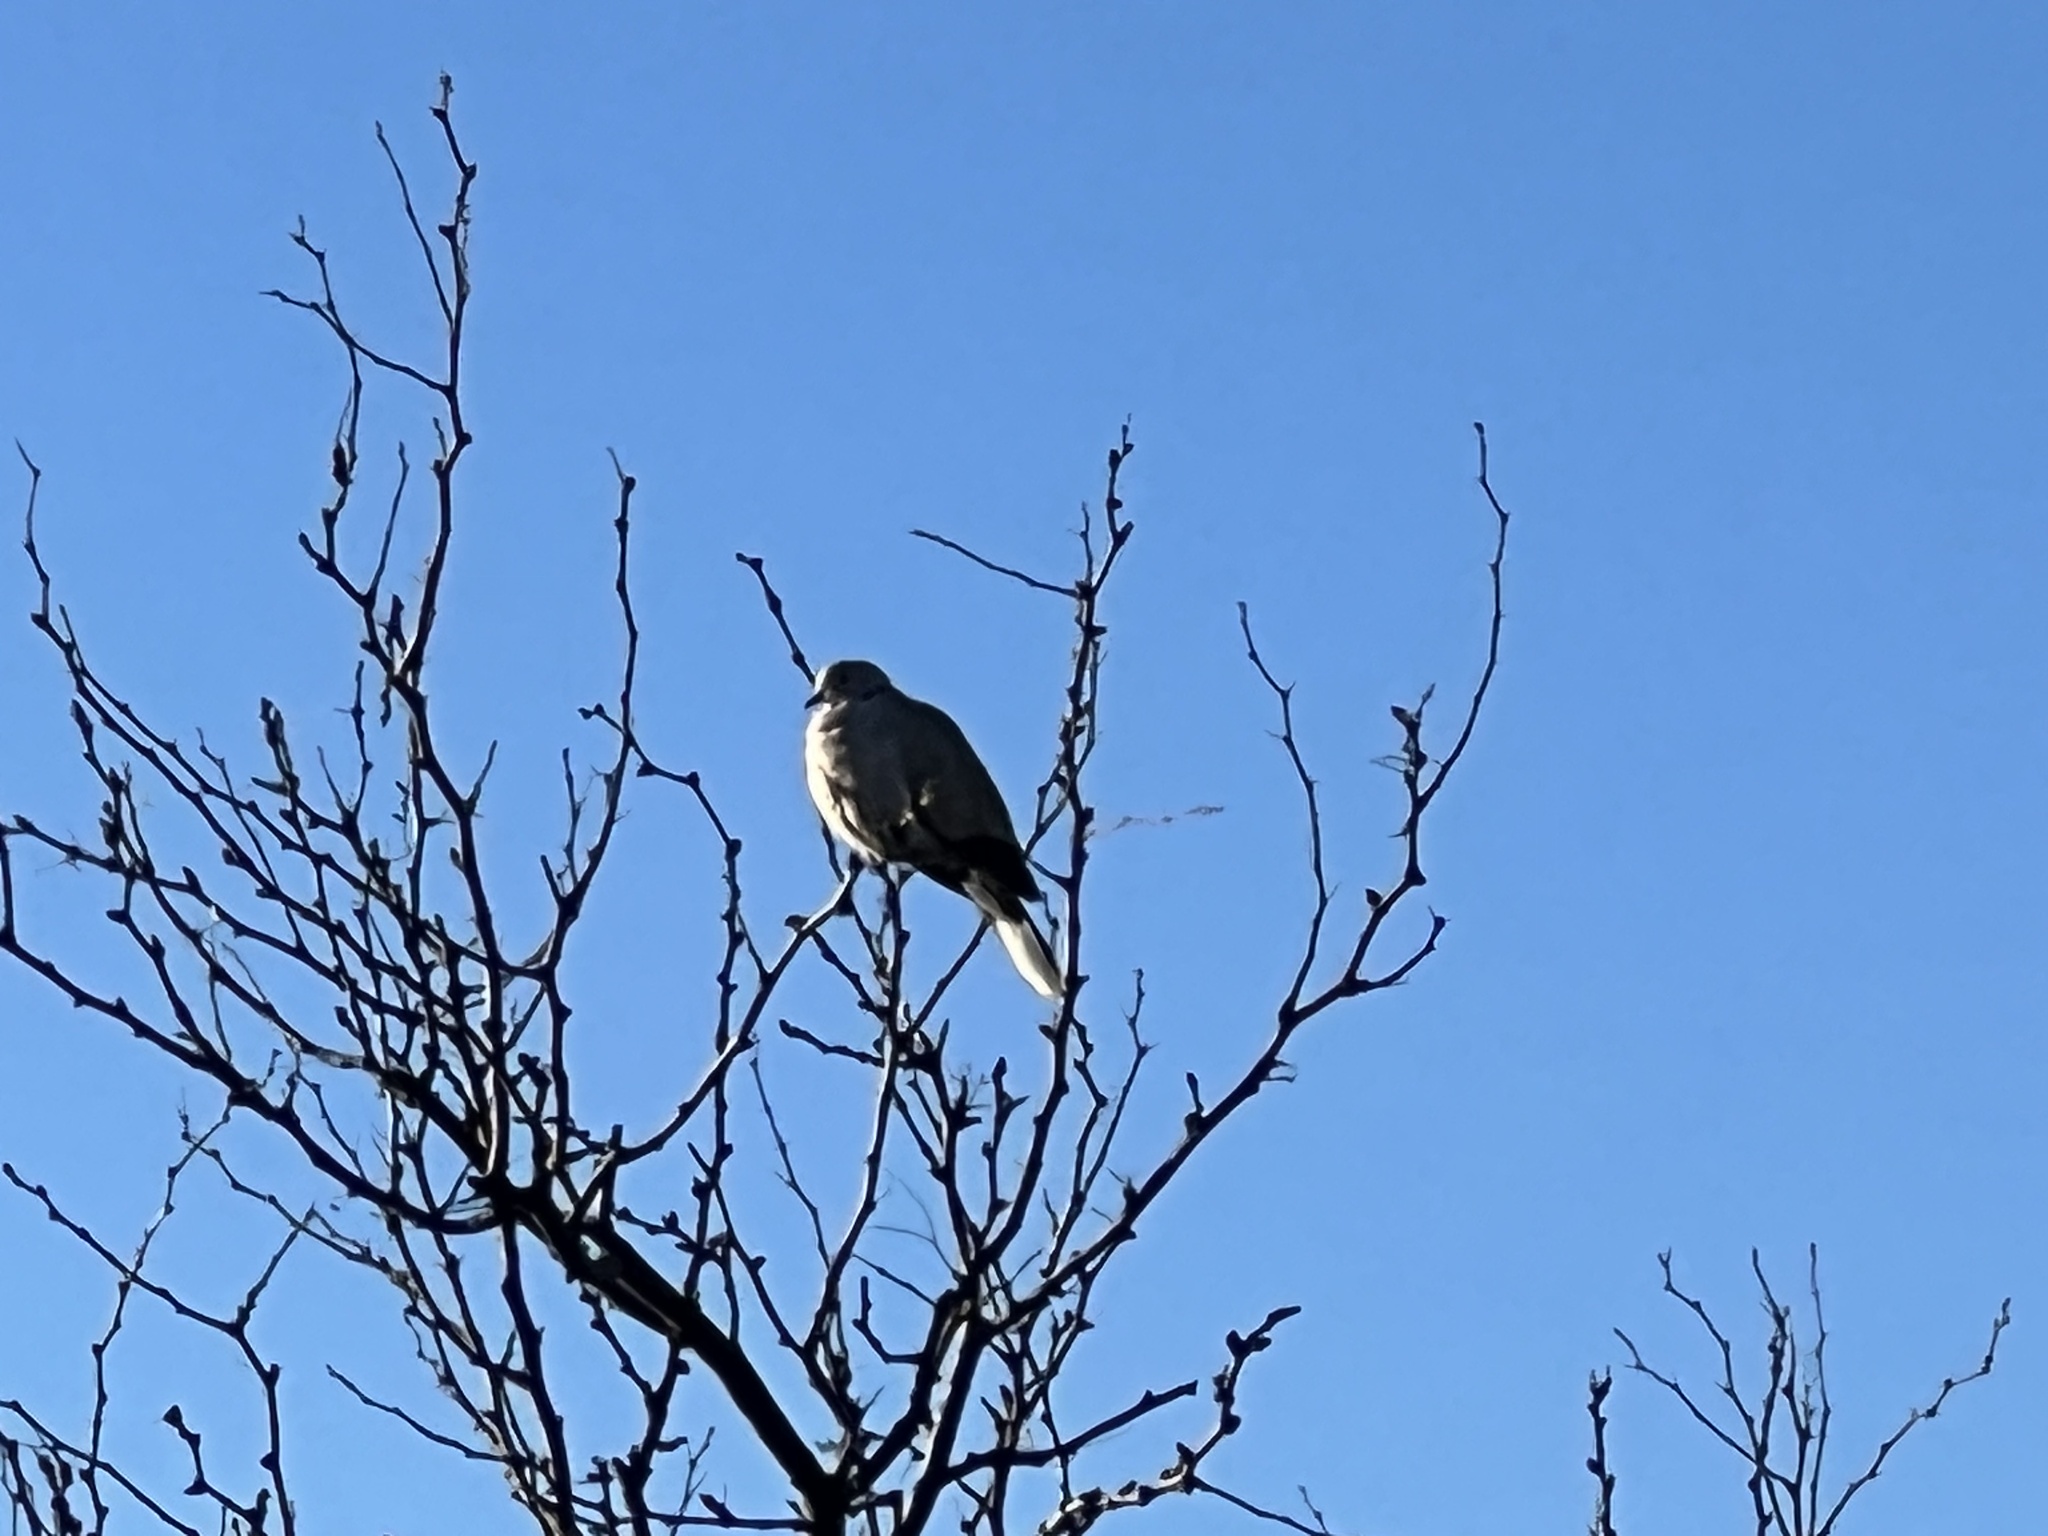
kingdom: Animalia
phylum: Chordata
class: Aves
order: Columbiformes
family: Columbidae
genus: Streptopelia
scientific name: Streptopelia decaocto
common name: Eurasian collared dove
